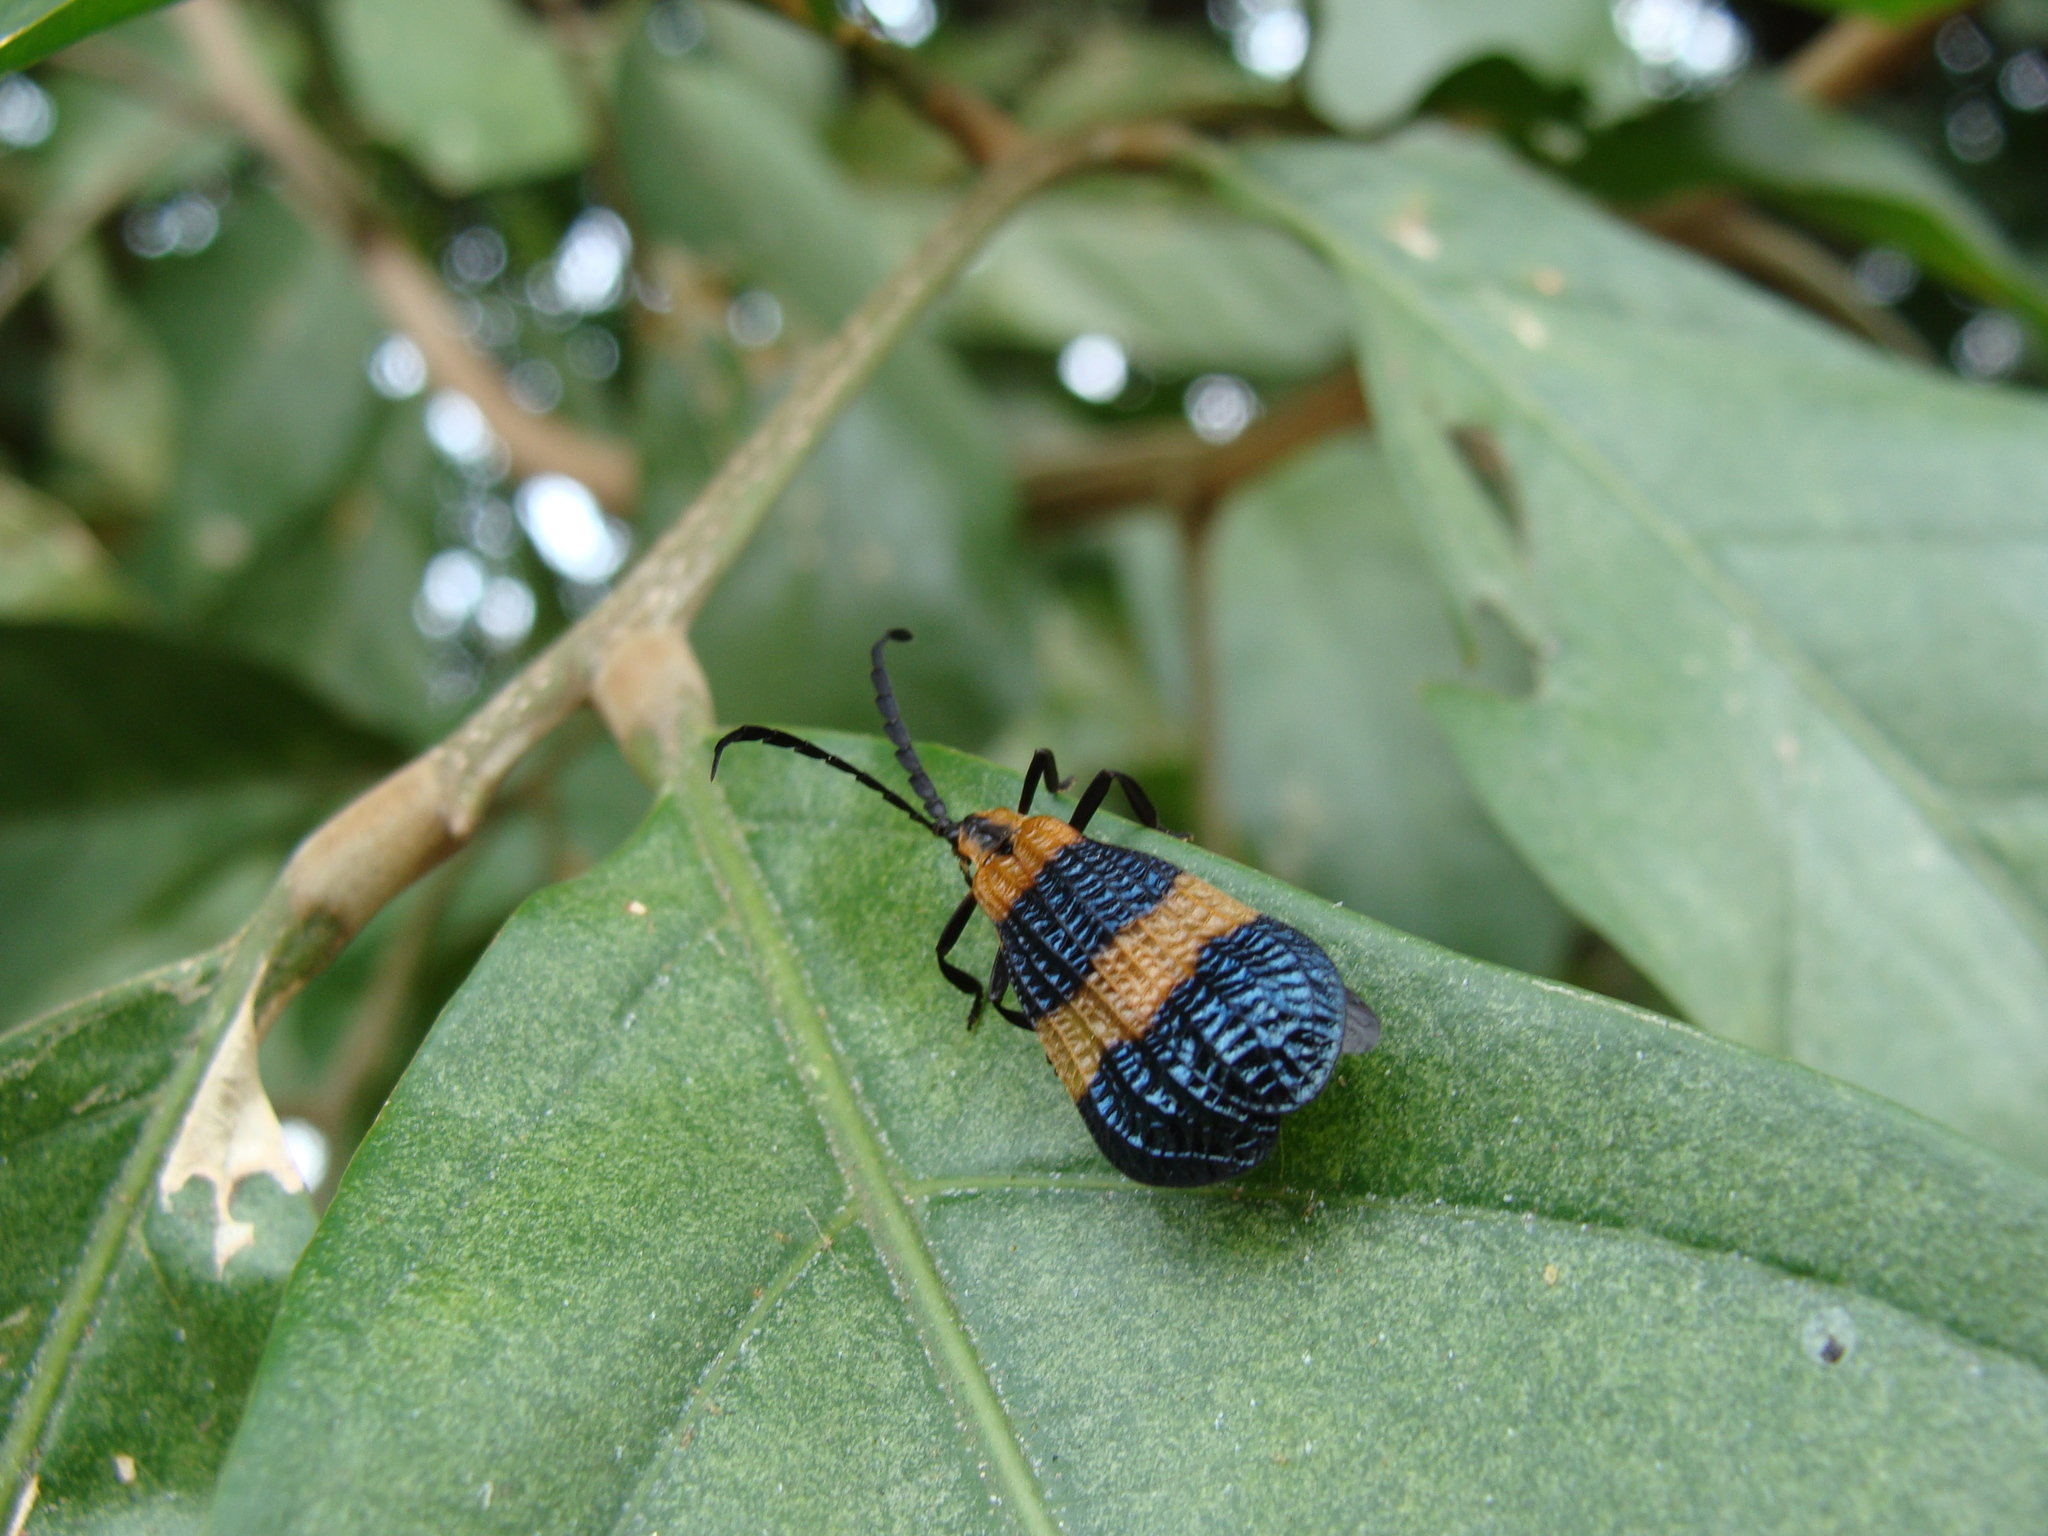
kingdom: Animalia
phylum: Arthropoda
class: Insecta
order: Coleoptera
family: Lycidae
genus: Calopteron
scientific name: Calopteron reticulatum
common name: Banded net-winged beetle
